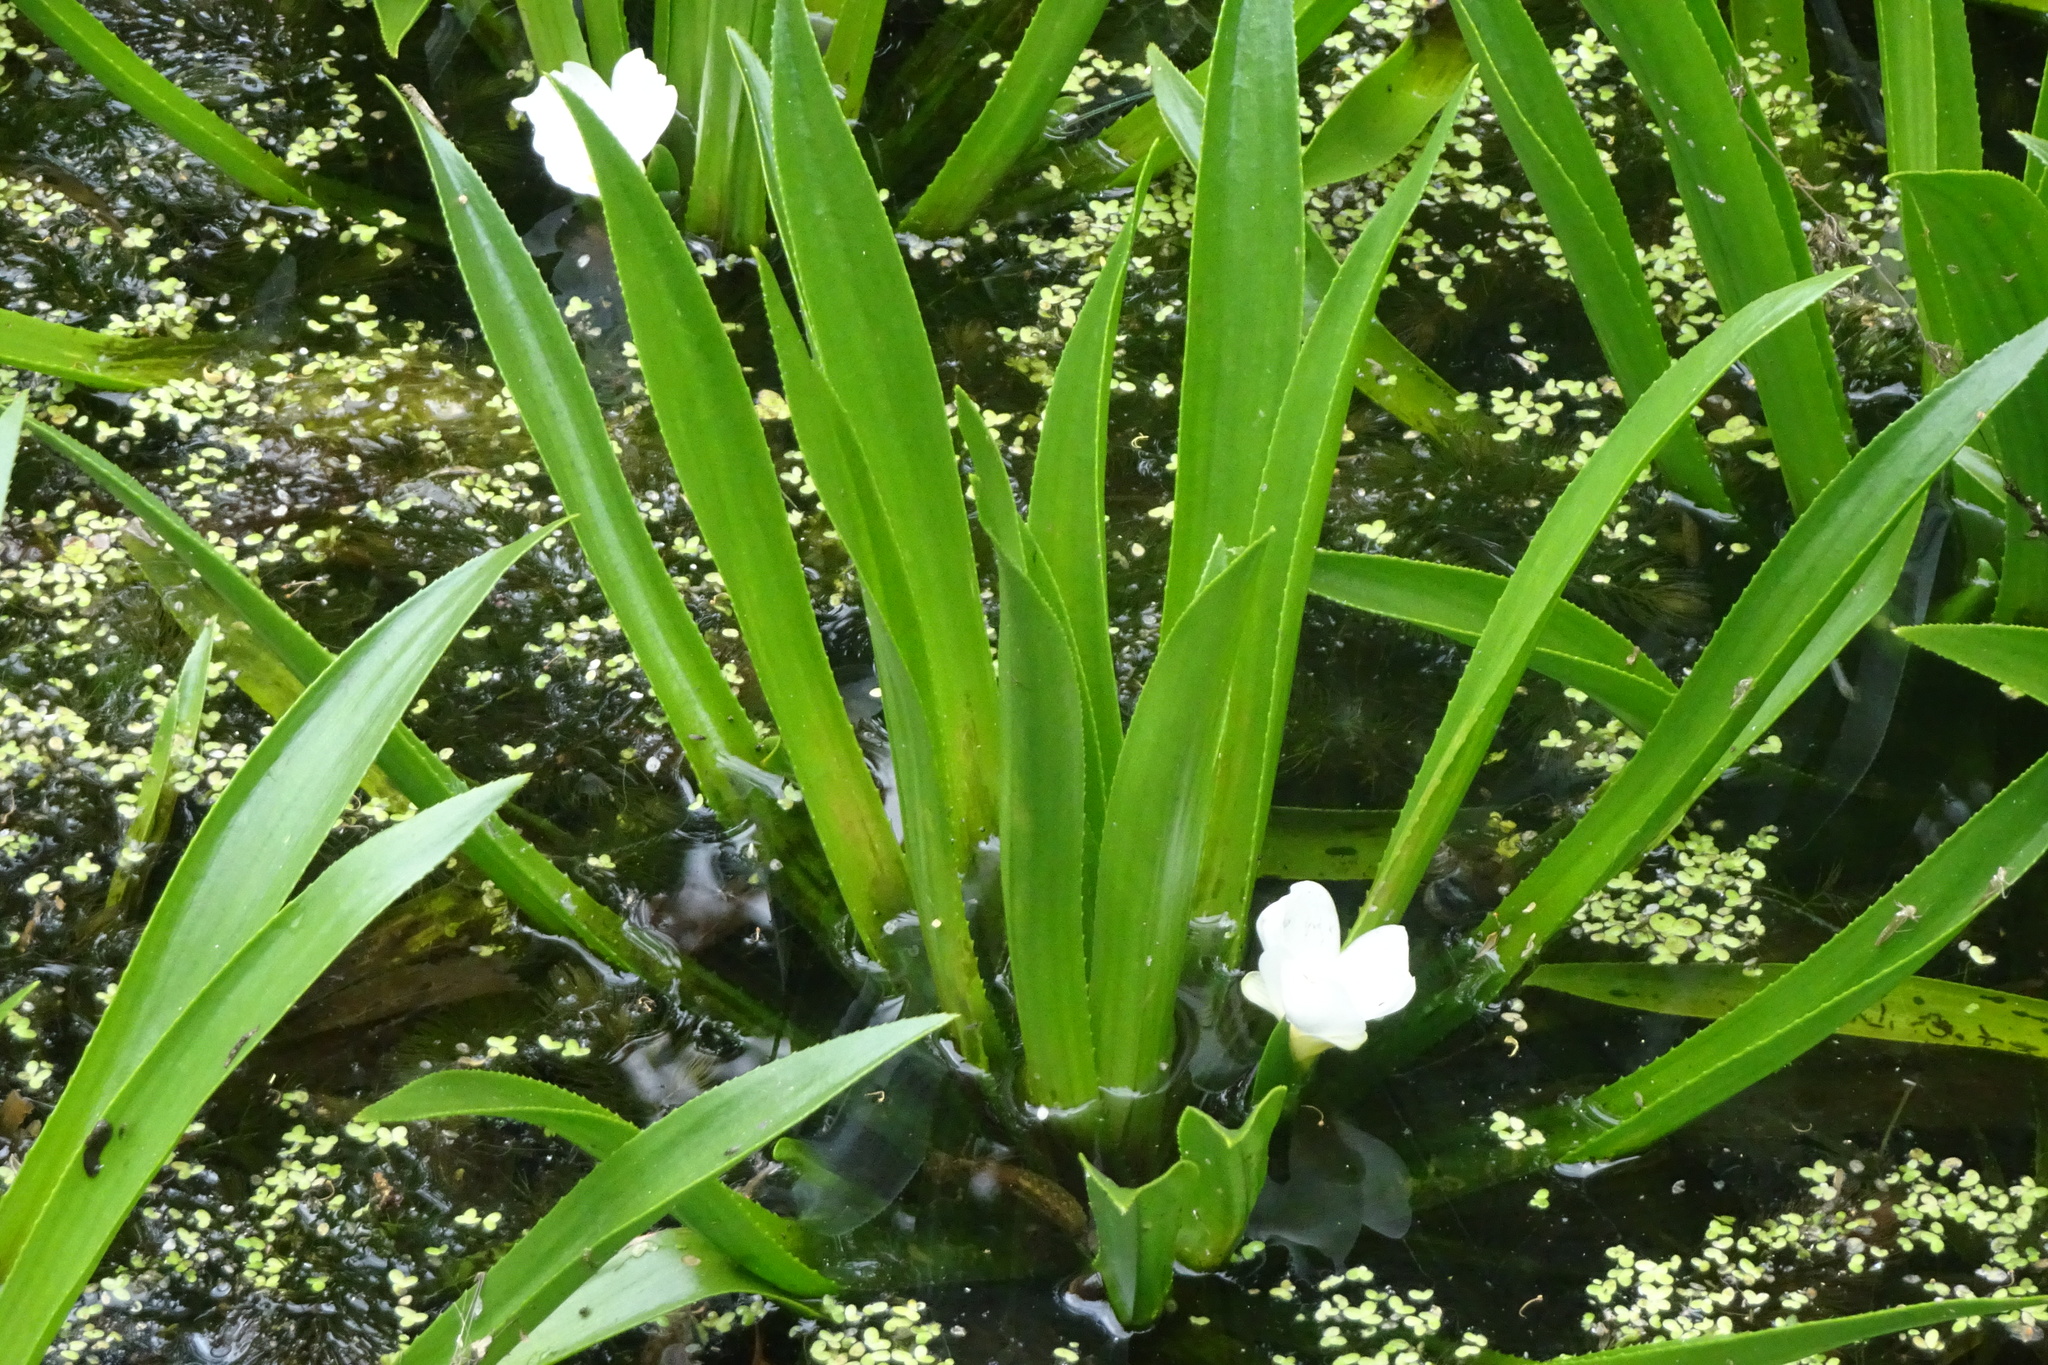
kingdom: Plantae
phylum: Tracheophyta
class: Liliopsida
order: Alismatales
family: Hydrocharitaceae
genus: Stratiotes
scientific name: Stratiotes aloides
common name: Water-soldier
